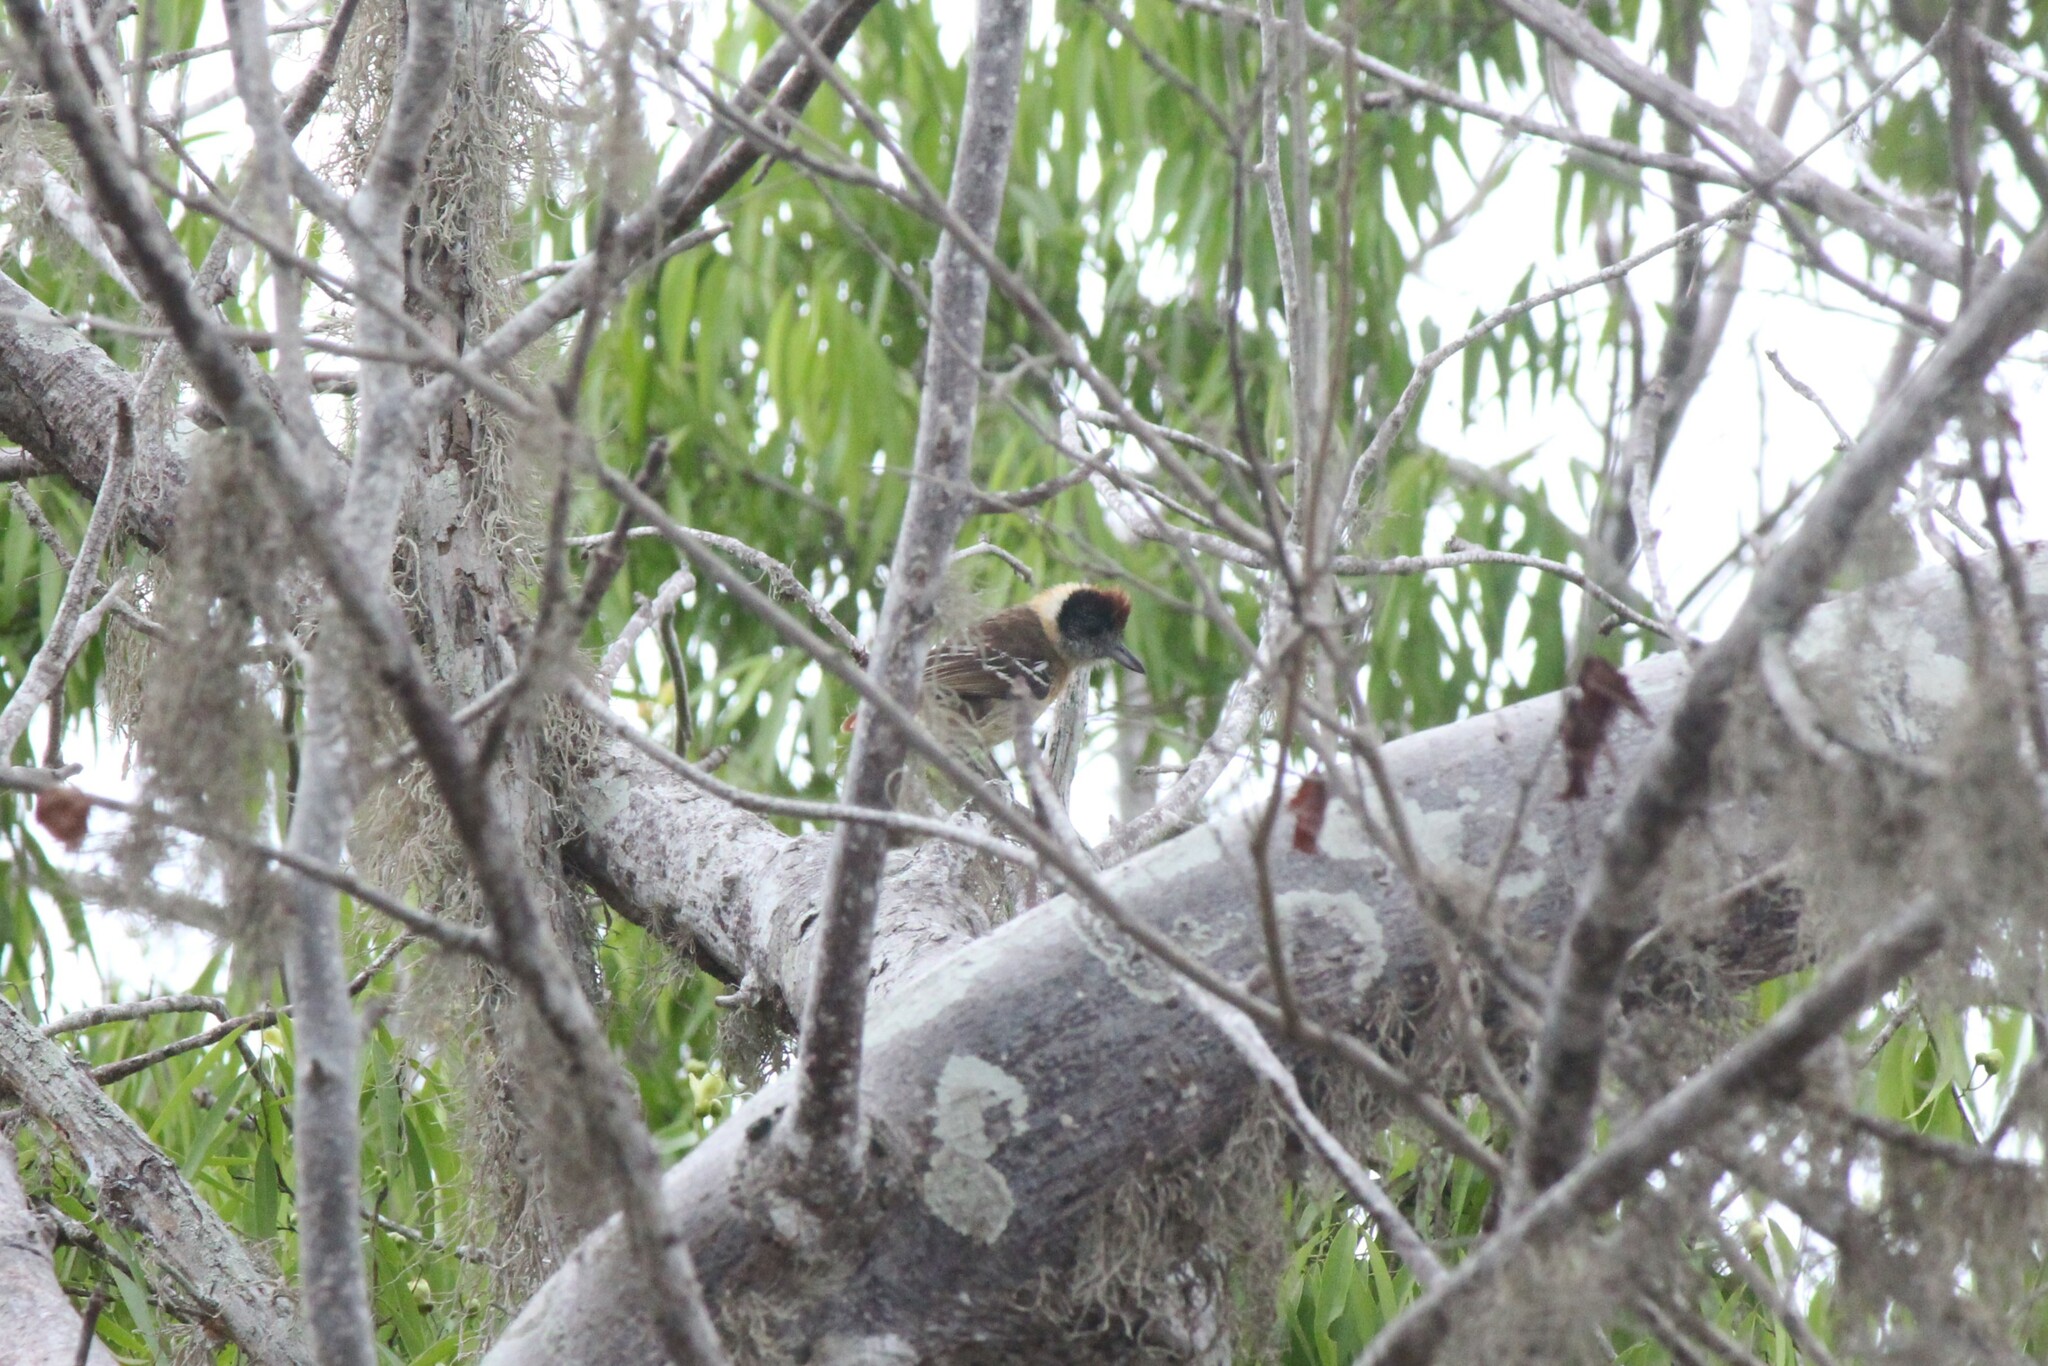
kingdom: Animalia
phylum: Chordata
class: Aves
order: Passeriformes
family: Thamnophilidae
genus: Thamnophilus
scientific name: Thamnophilus bernardi
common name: Collared antshrike
